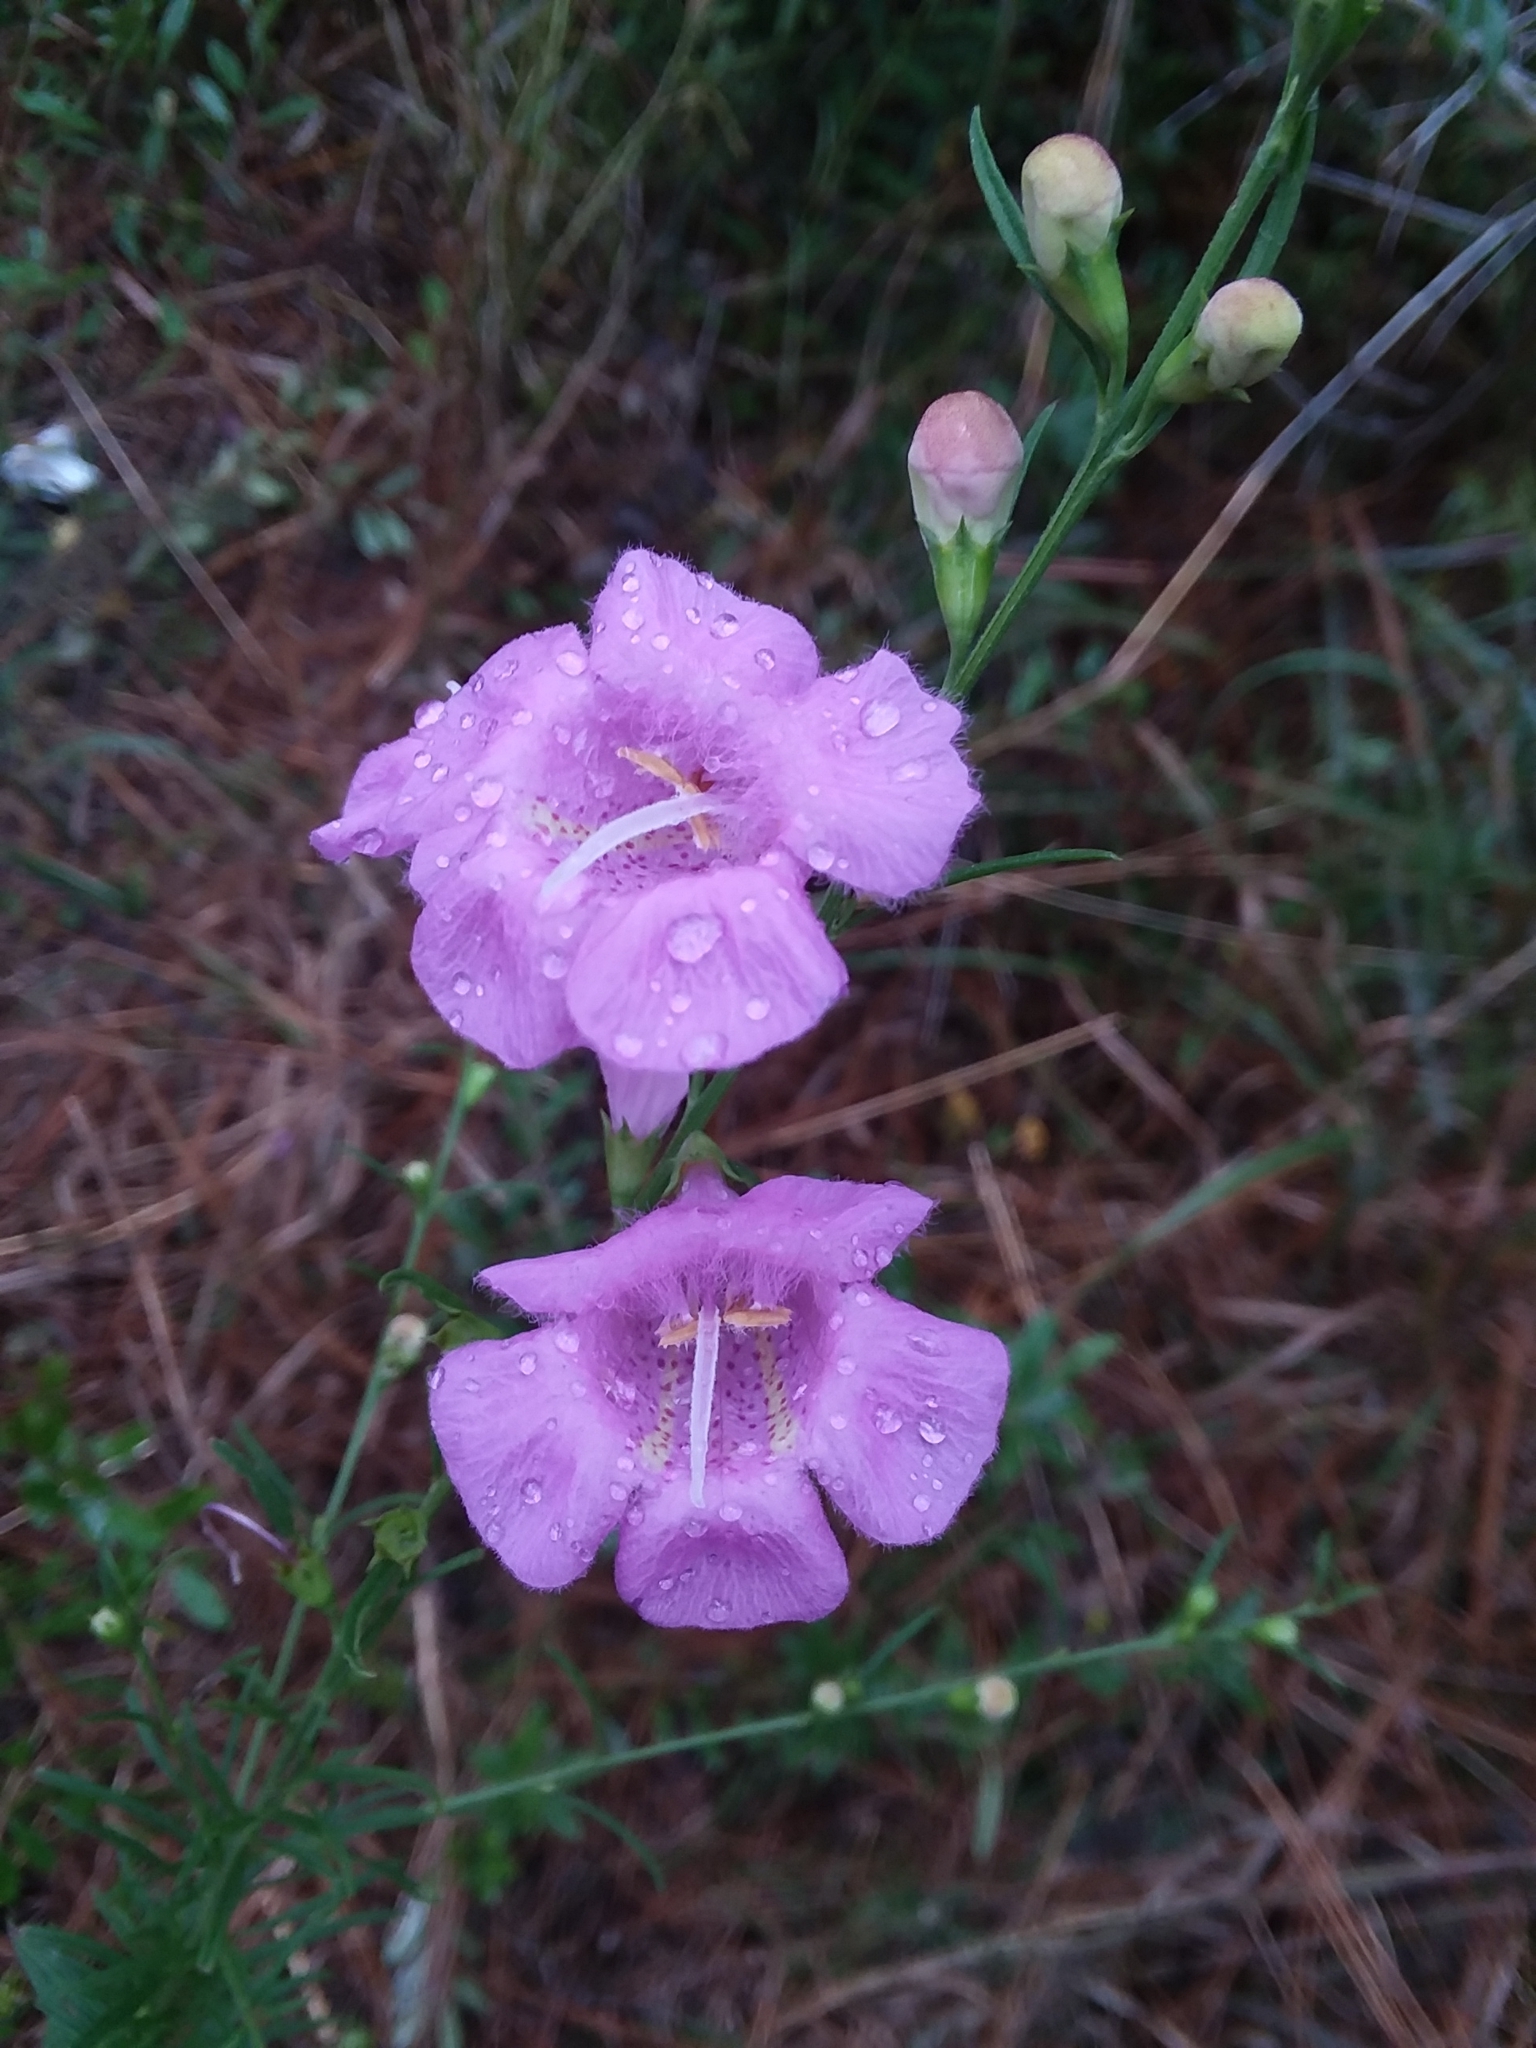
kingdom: Plantae
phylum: Tracheophyta
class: Magnoliopsida
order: Lamiales
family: Orobanchaceae
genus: Agalinis
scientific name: Agalinis fasciculata
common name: Beach false foxglove
